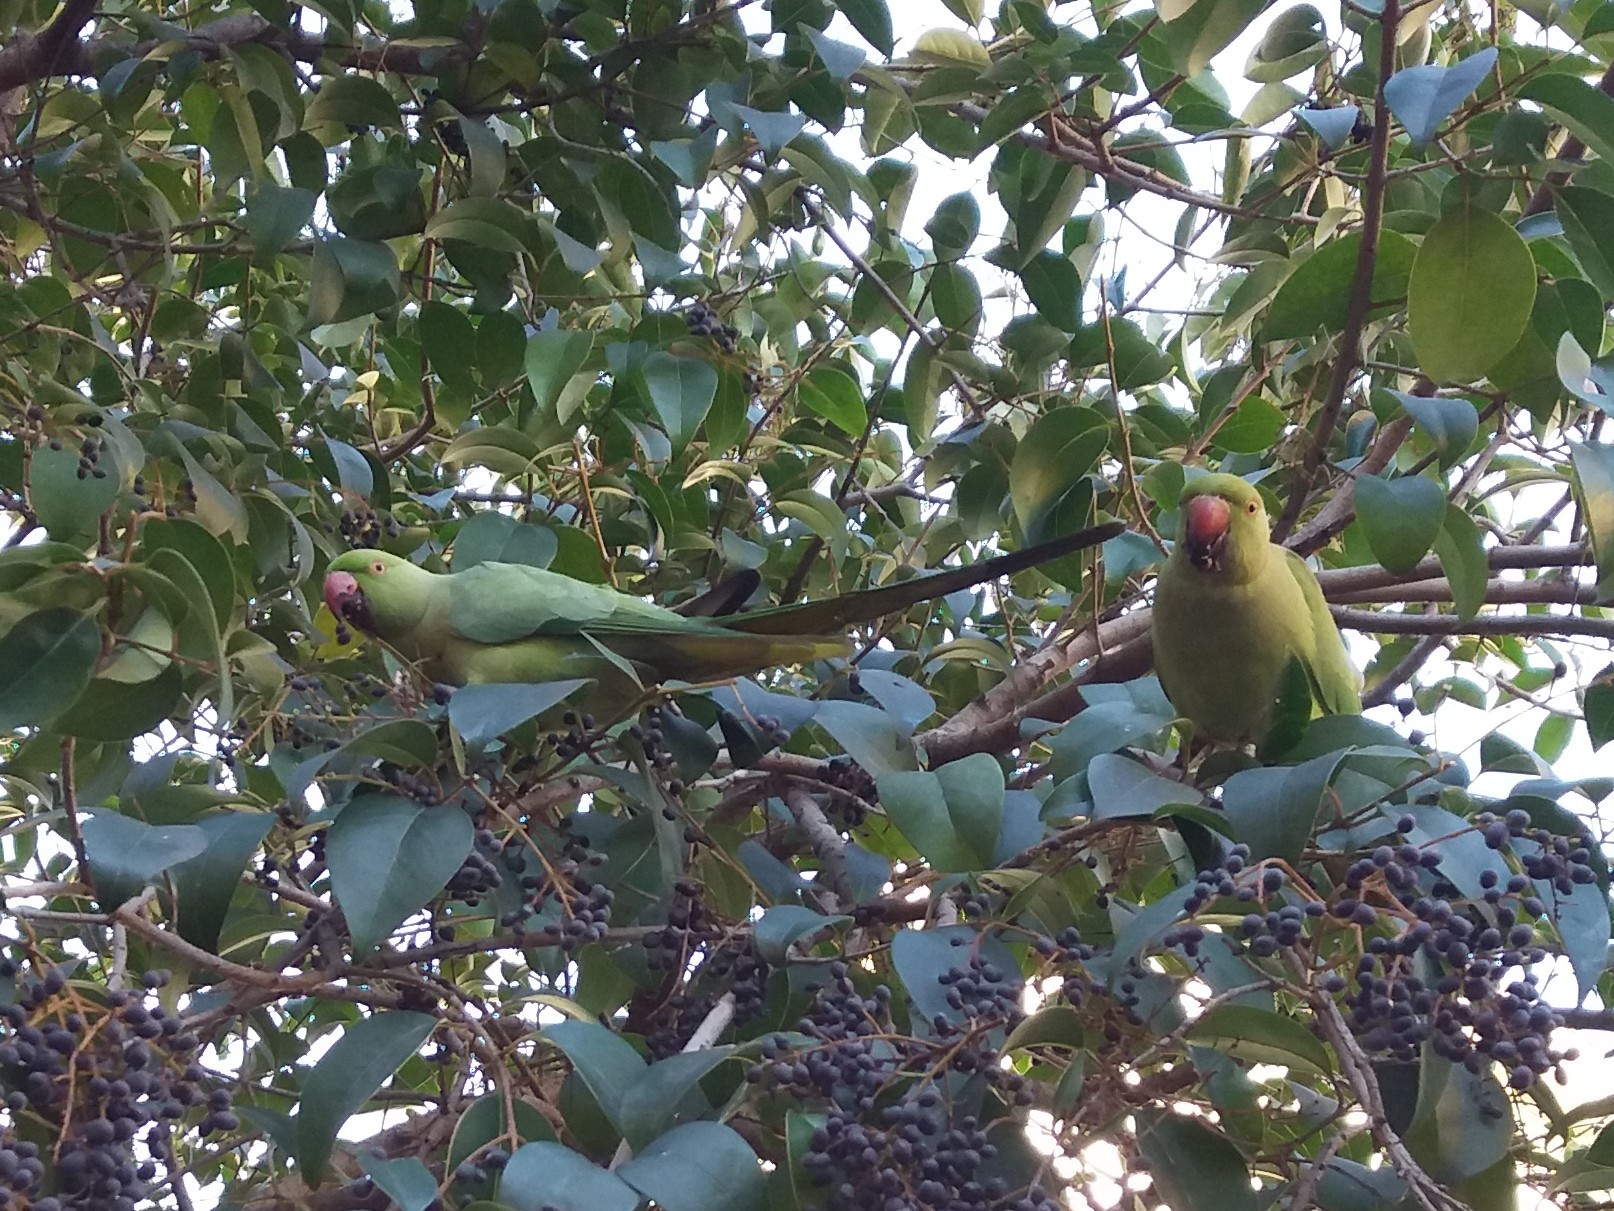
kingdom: Animalia
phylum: Chordata
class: Aves
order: Psittaciformes
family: Psittacidae
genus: Psittacula
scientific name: Psittacula krameri
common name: Rose-ringed parakeet
